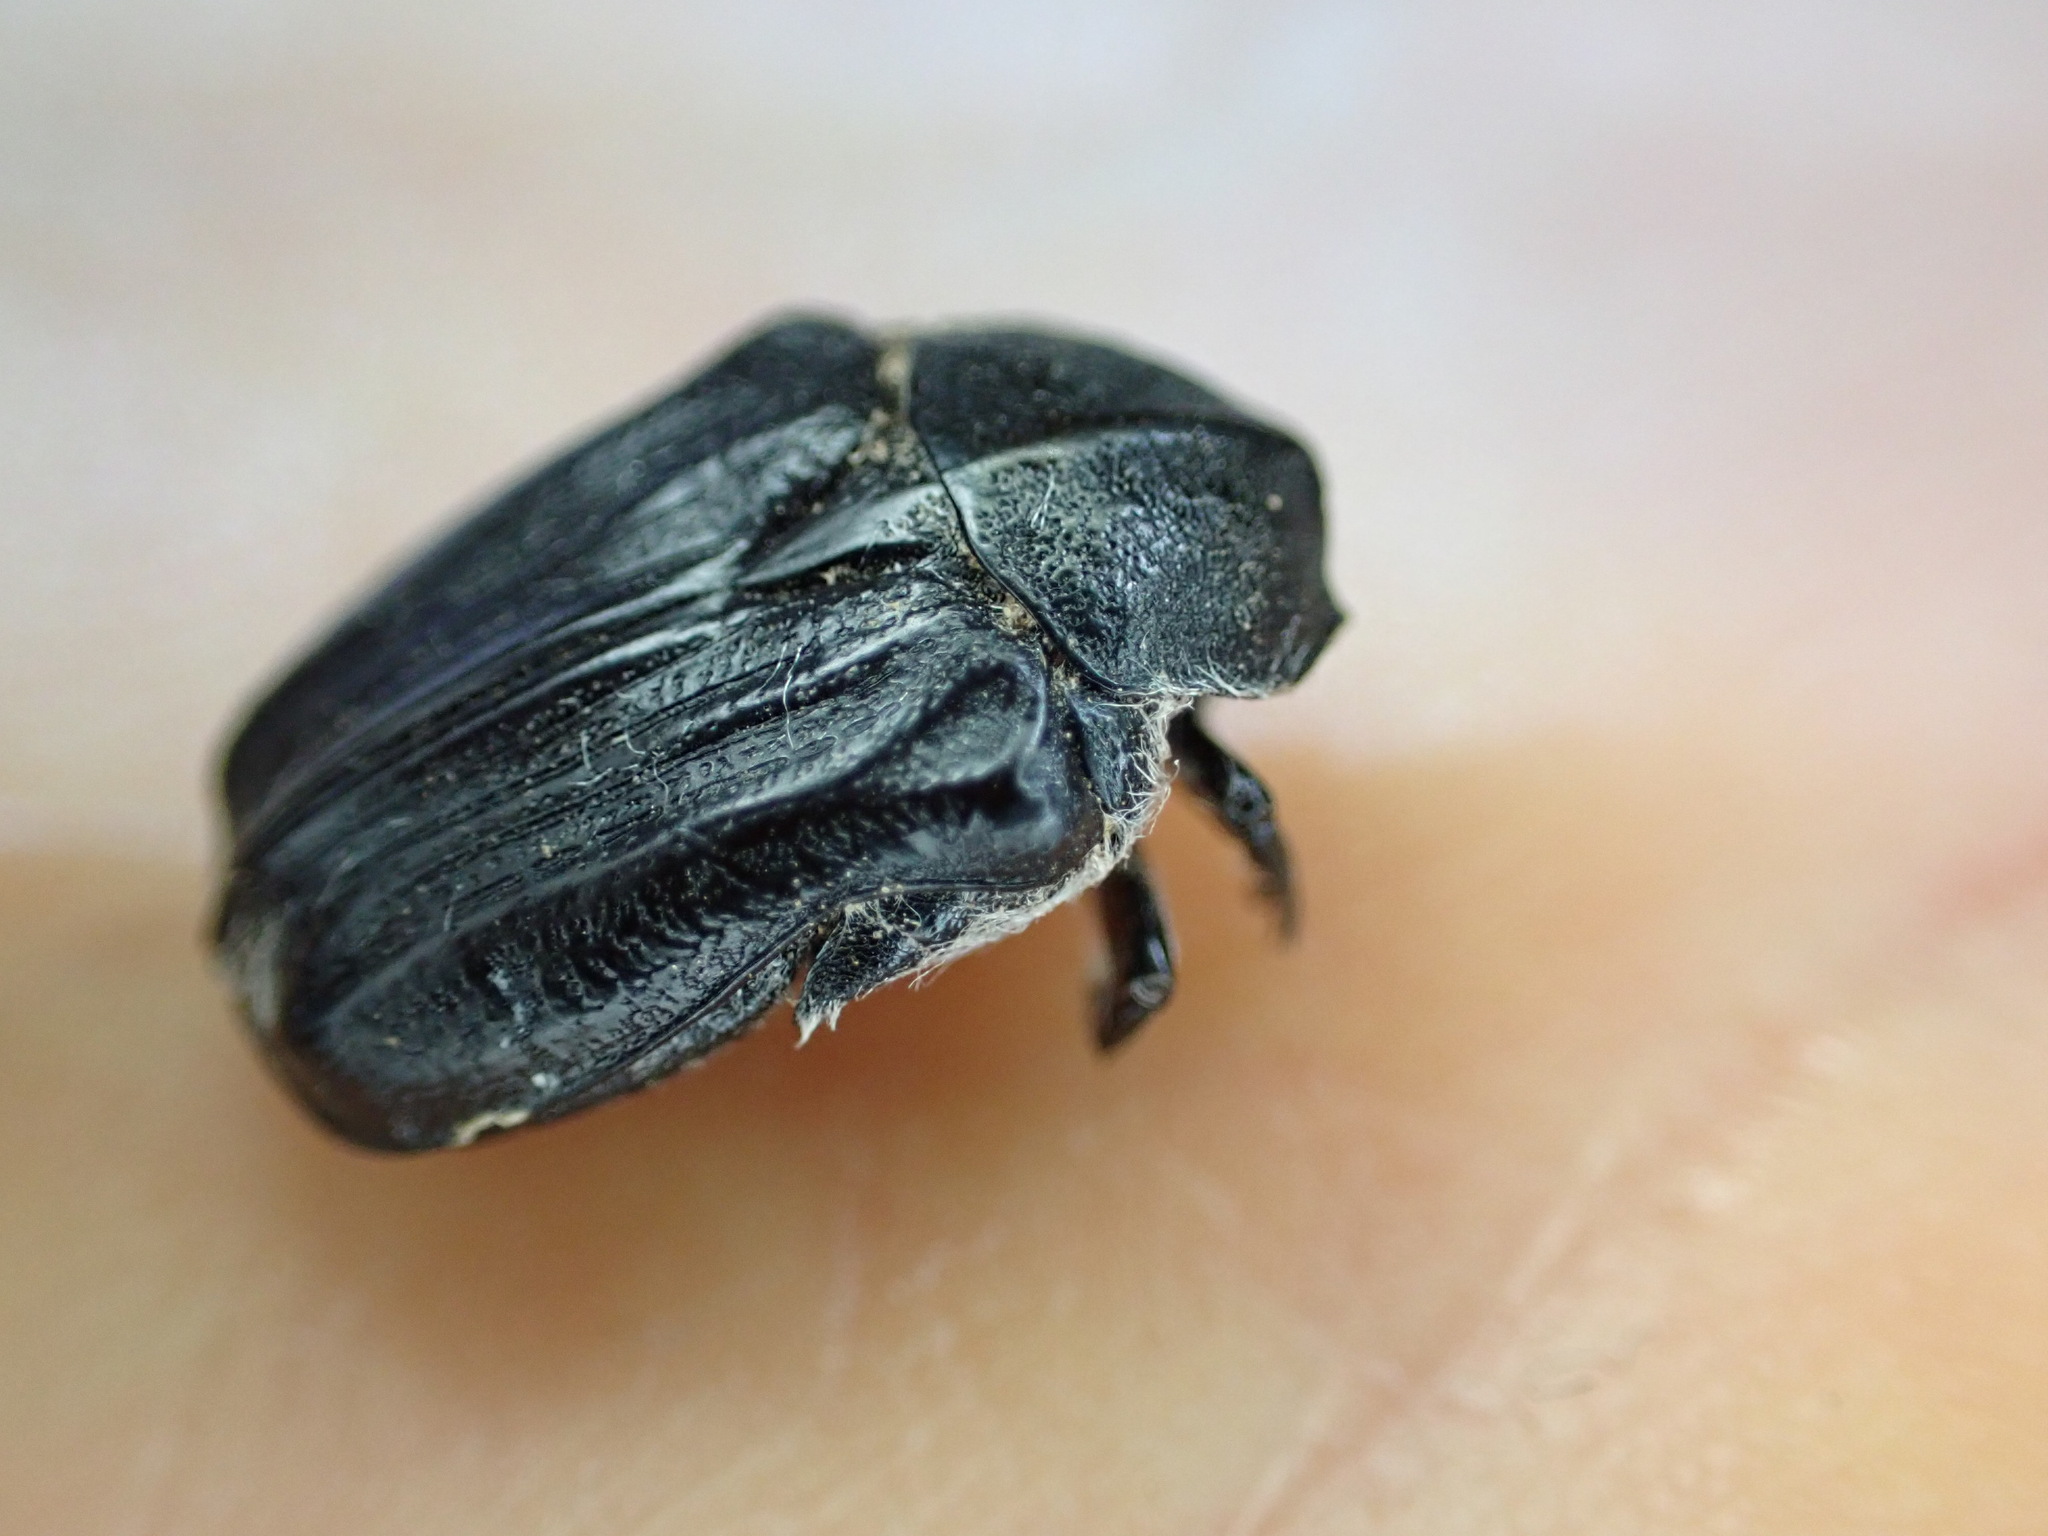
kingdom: Animalia
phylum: Arthropoda
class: Insecta
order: Coleoptera
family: Scarabaeidae
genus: Tropinota
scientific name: Tropinota squalida
